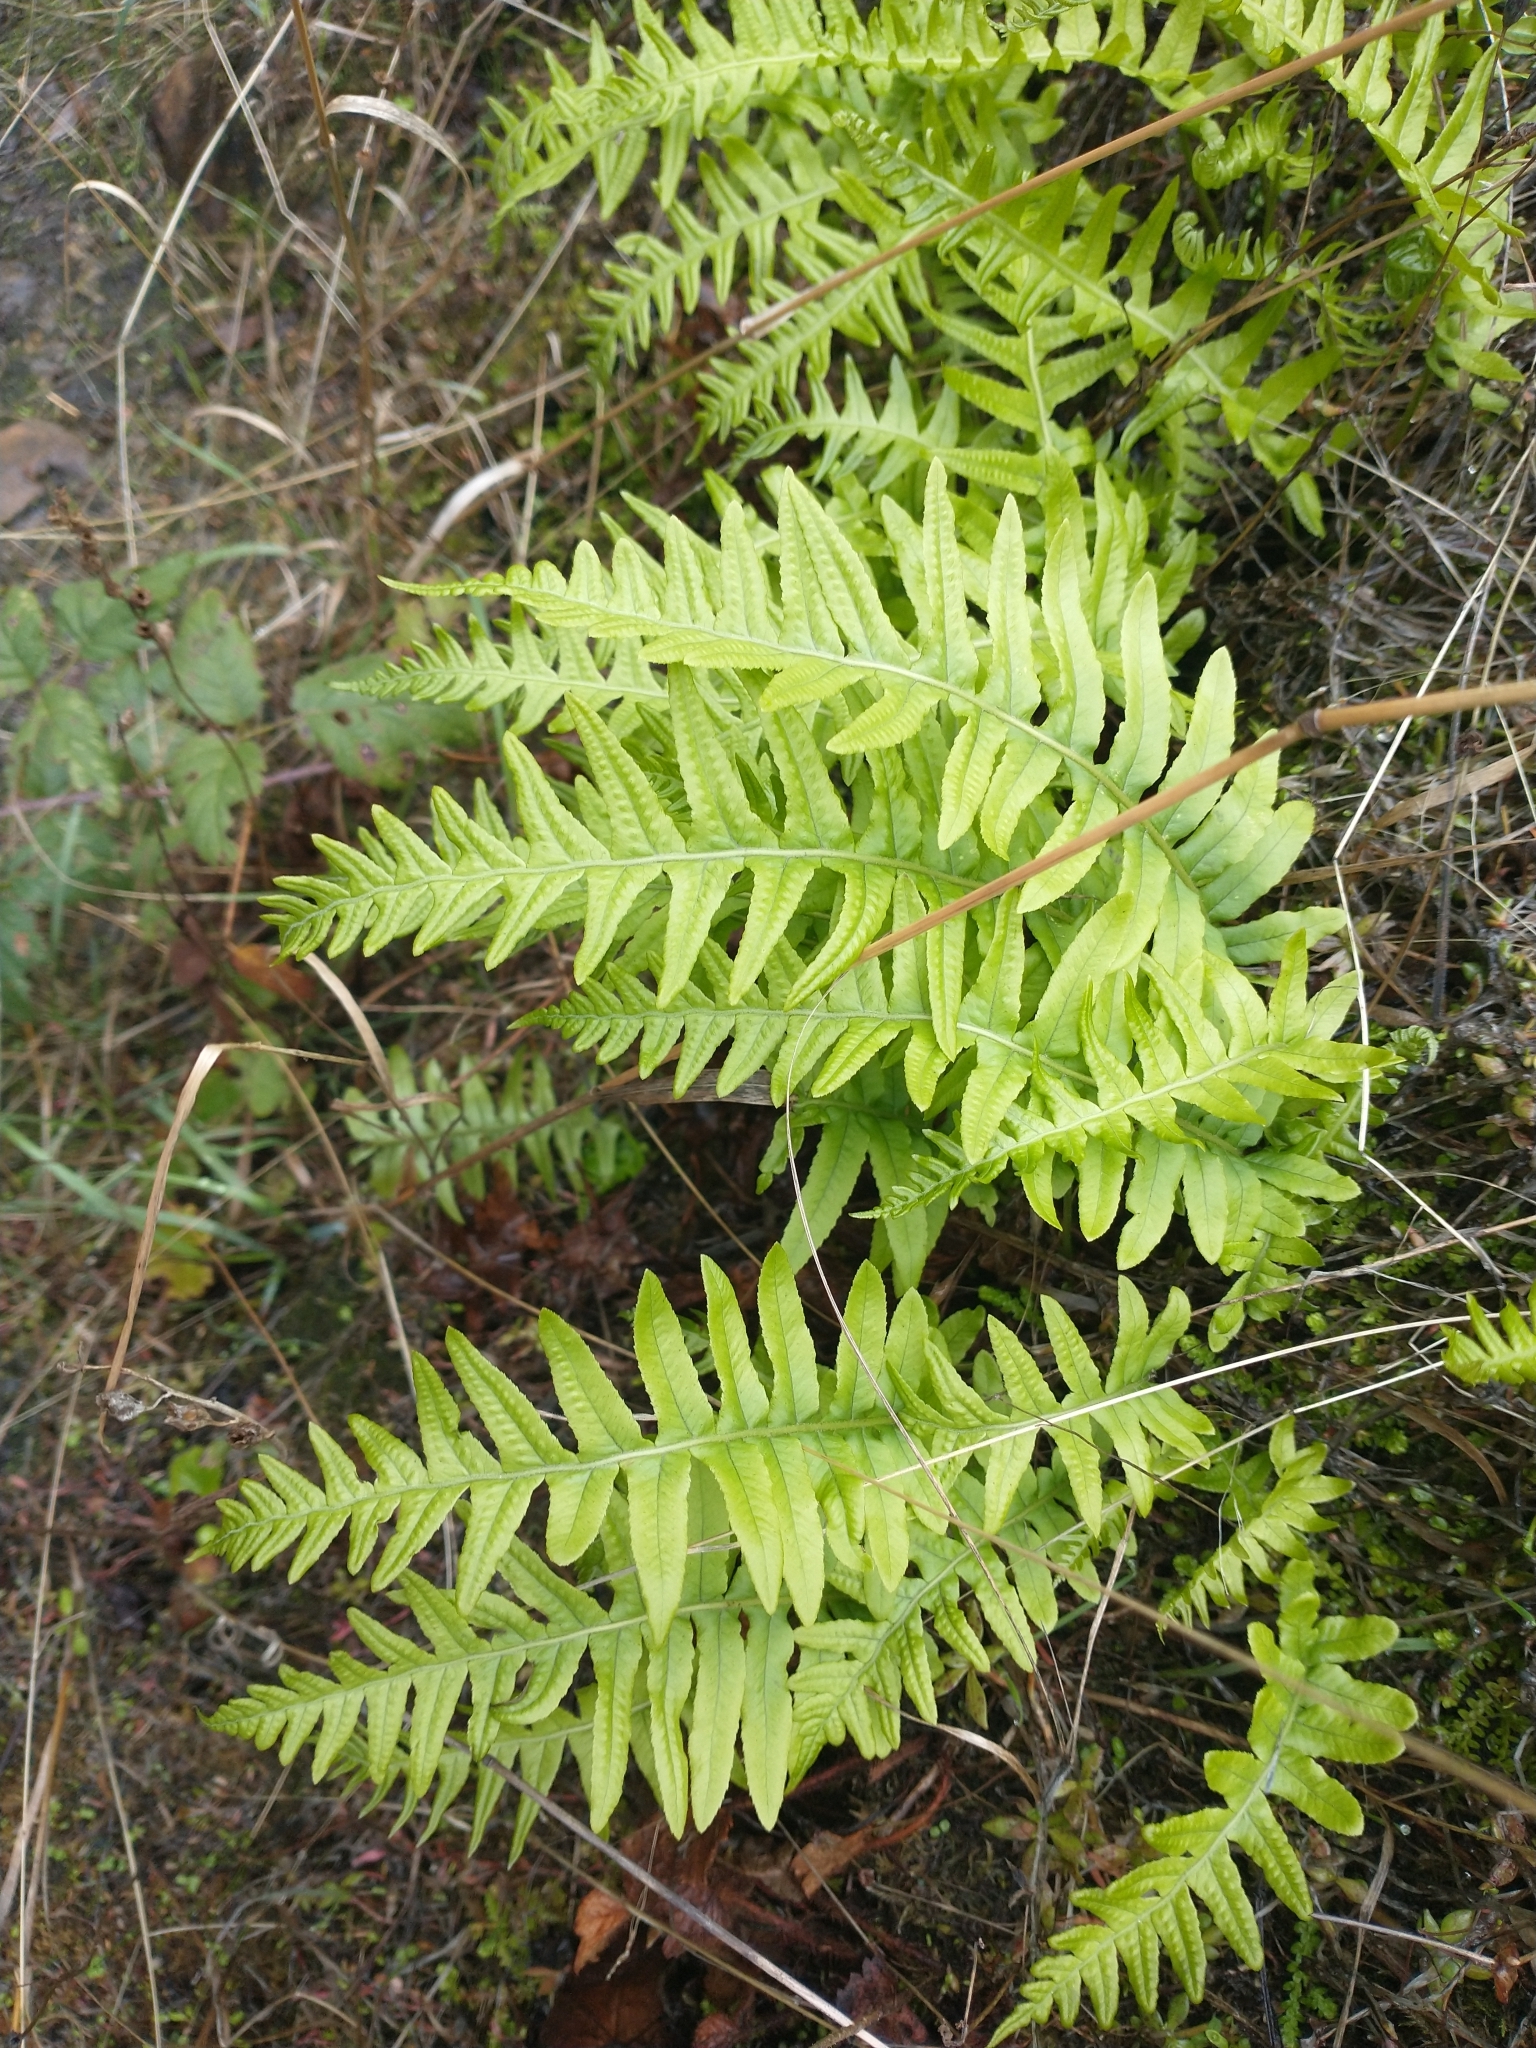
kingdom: Plantae
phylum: Tracheophyta
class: Polypodiopsida
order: Polypodiales
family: Polypodiaceae
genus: Polypodium
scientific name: Polypodium glycyrrhiza
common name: Licorice fern
